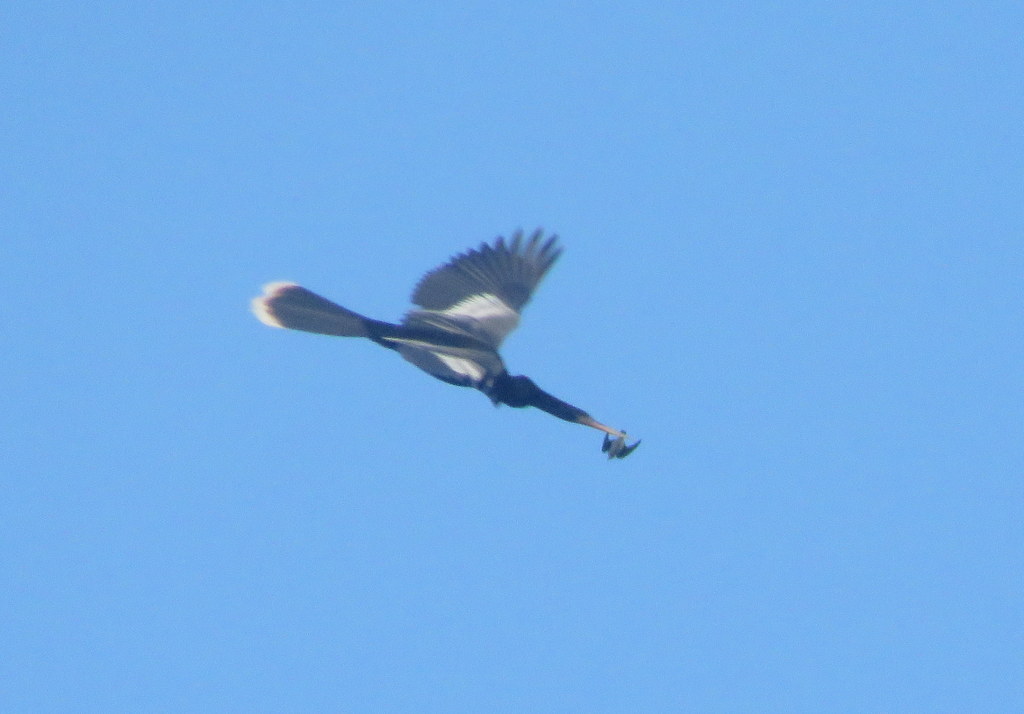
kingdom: Animalia
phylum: Chordata
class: Aves
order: Suliformes
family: Anhingidae
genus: Anhinga
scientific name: Anhinga anhinga
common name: Anhinga
